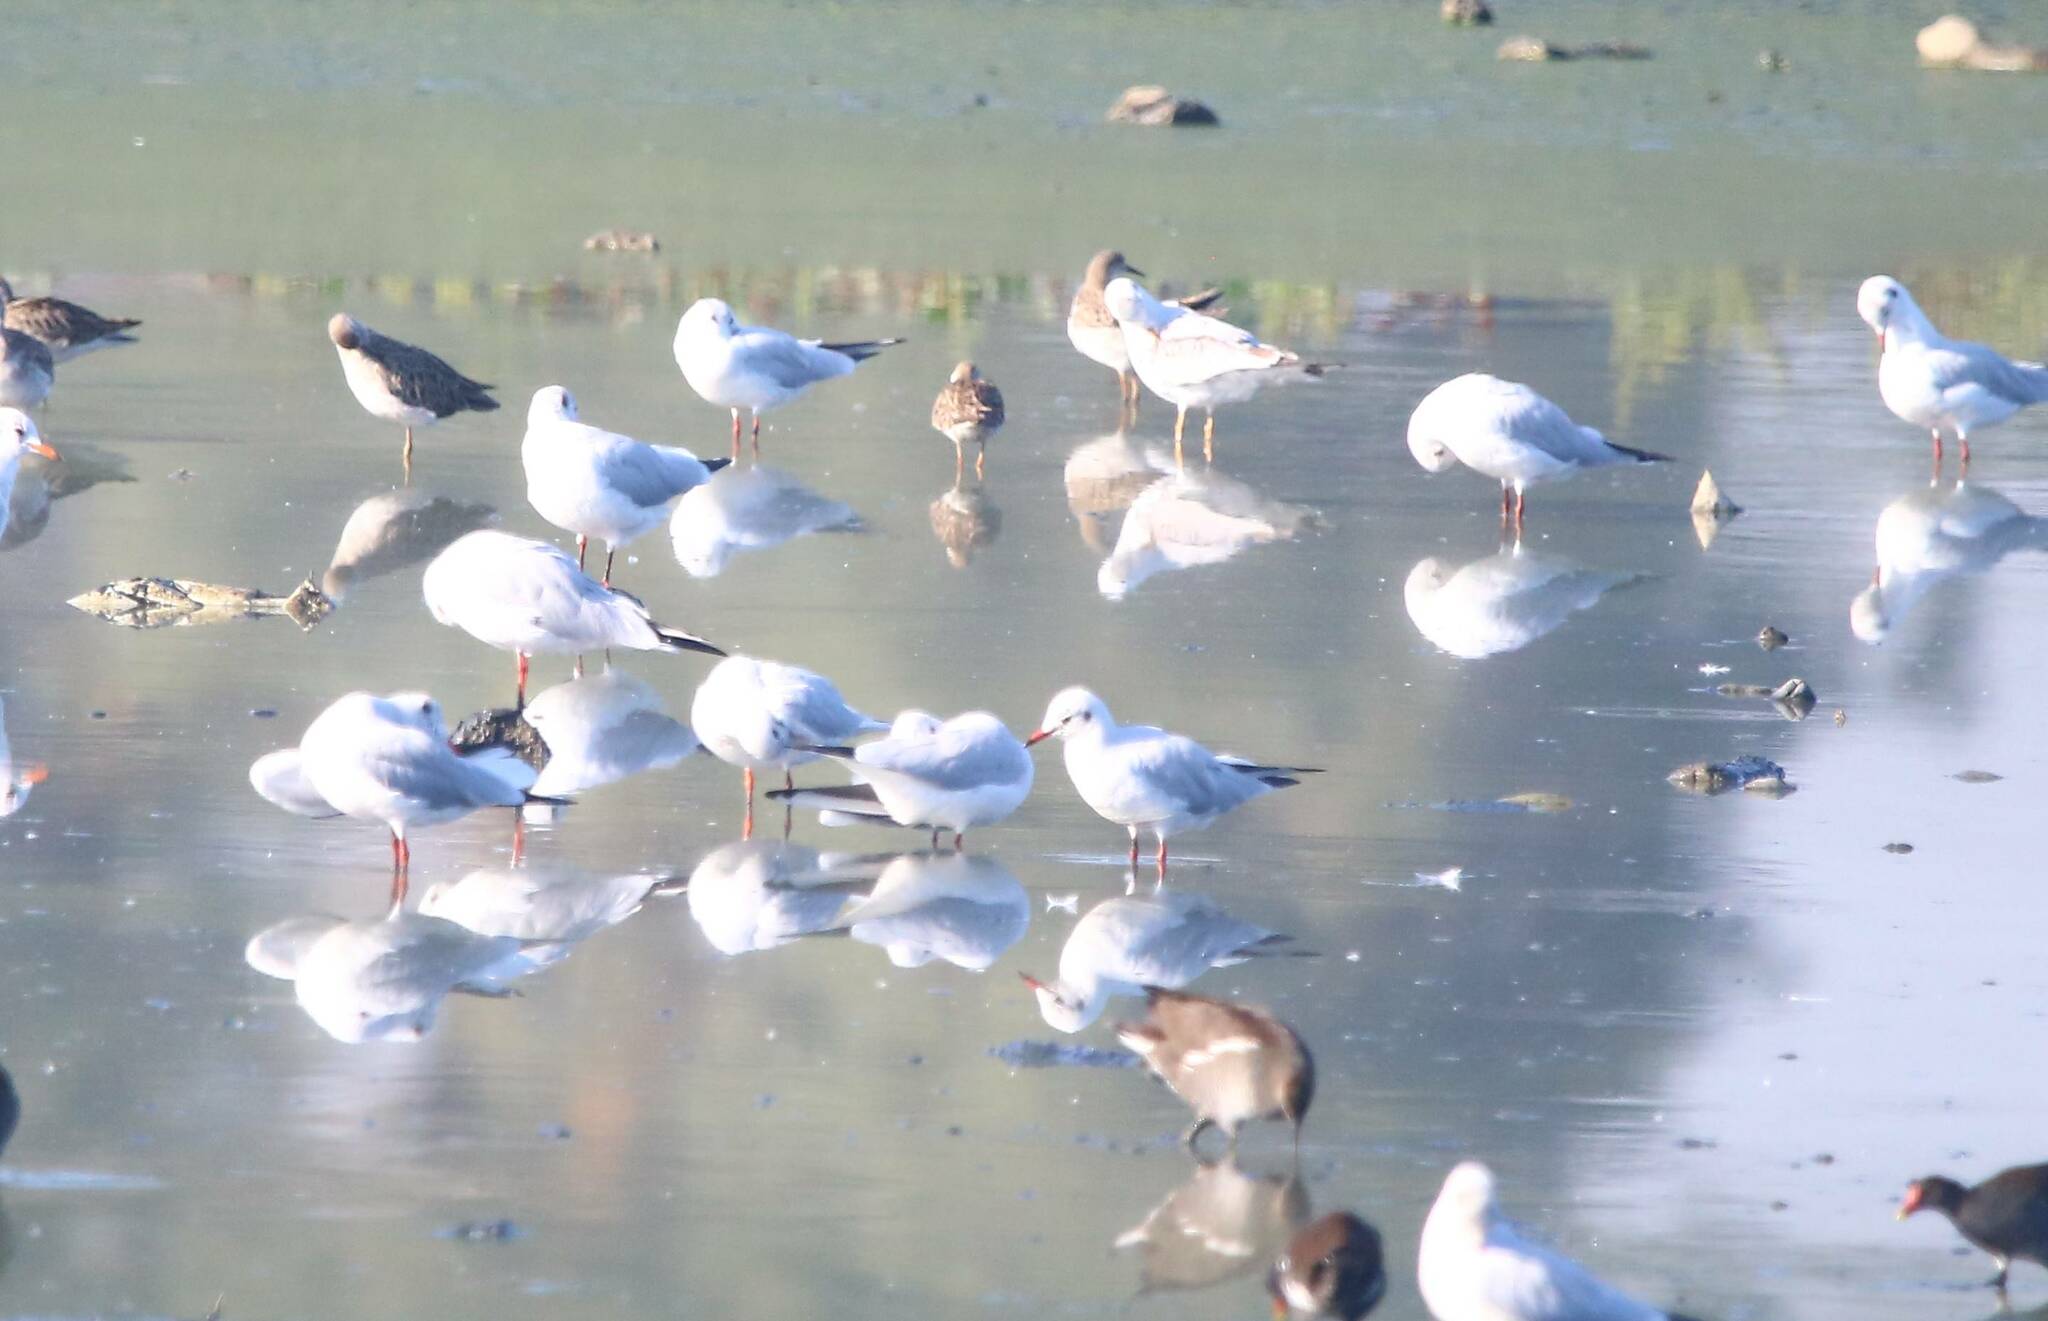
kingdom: Animalia
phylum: Chordata
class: Aves
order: Charadriiformes
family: Laridae
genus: Chroicocephalus
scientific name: Chroicocephalus ridibundus
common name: Black-headed gull
